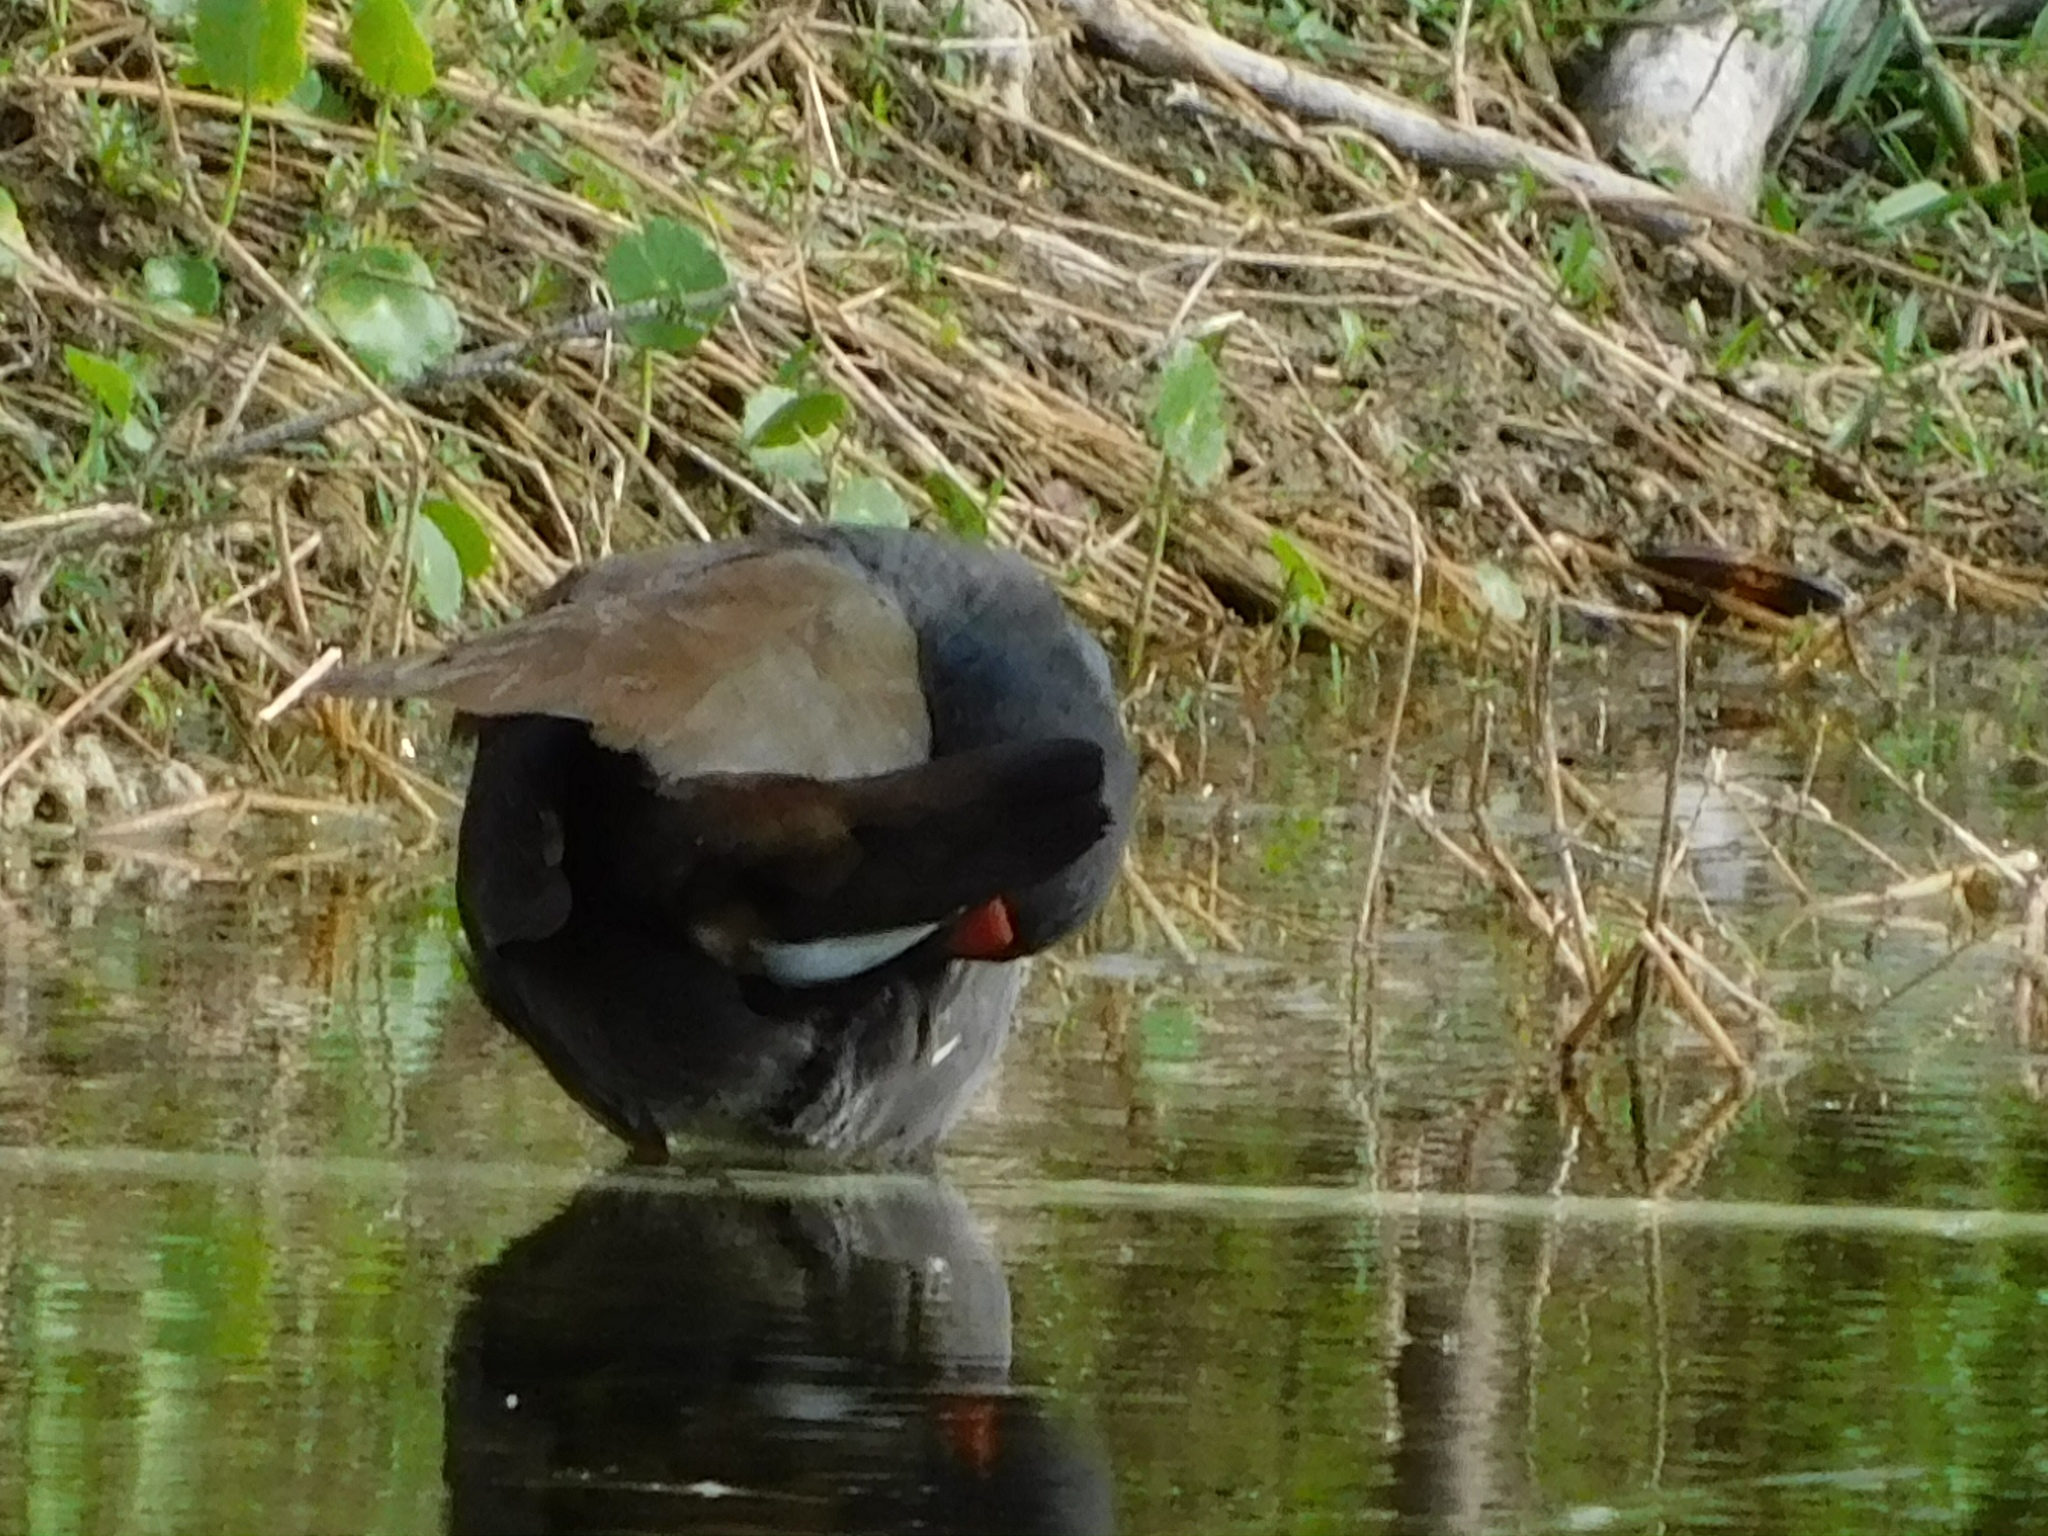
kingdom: Animalia
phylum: Chordata
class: Aves
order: Gruiformes
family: Rallidae
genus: Gallinula
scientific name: Gallinula chloropus
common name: Common moorhen
